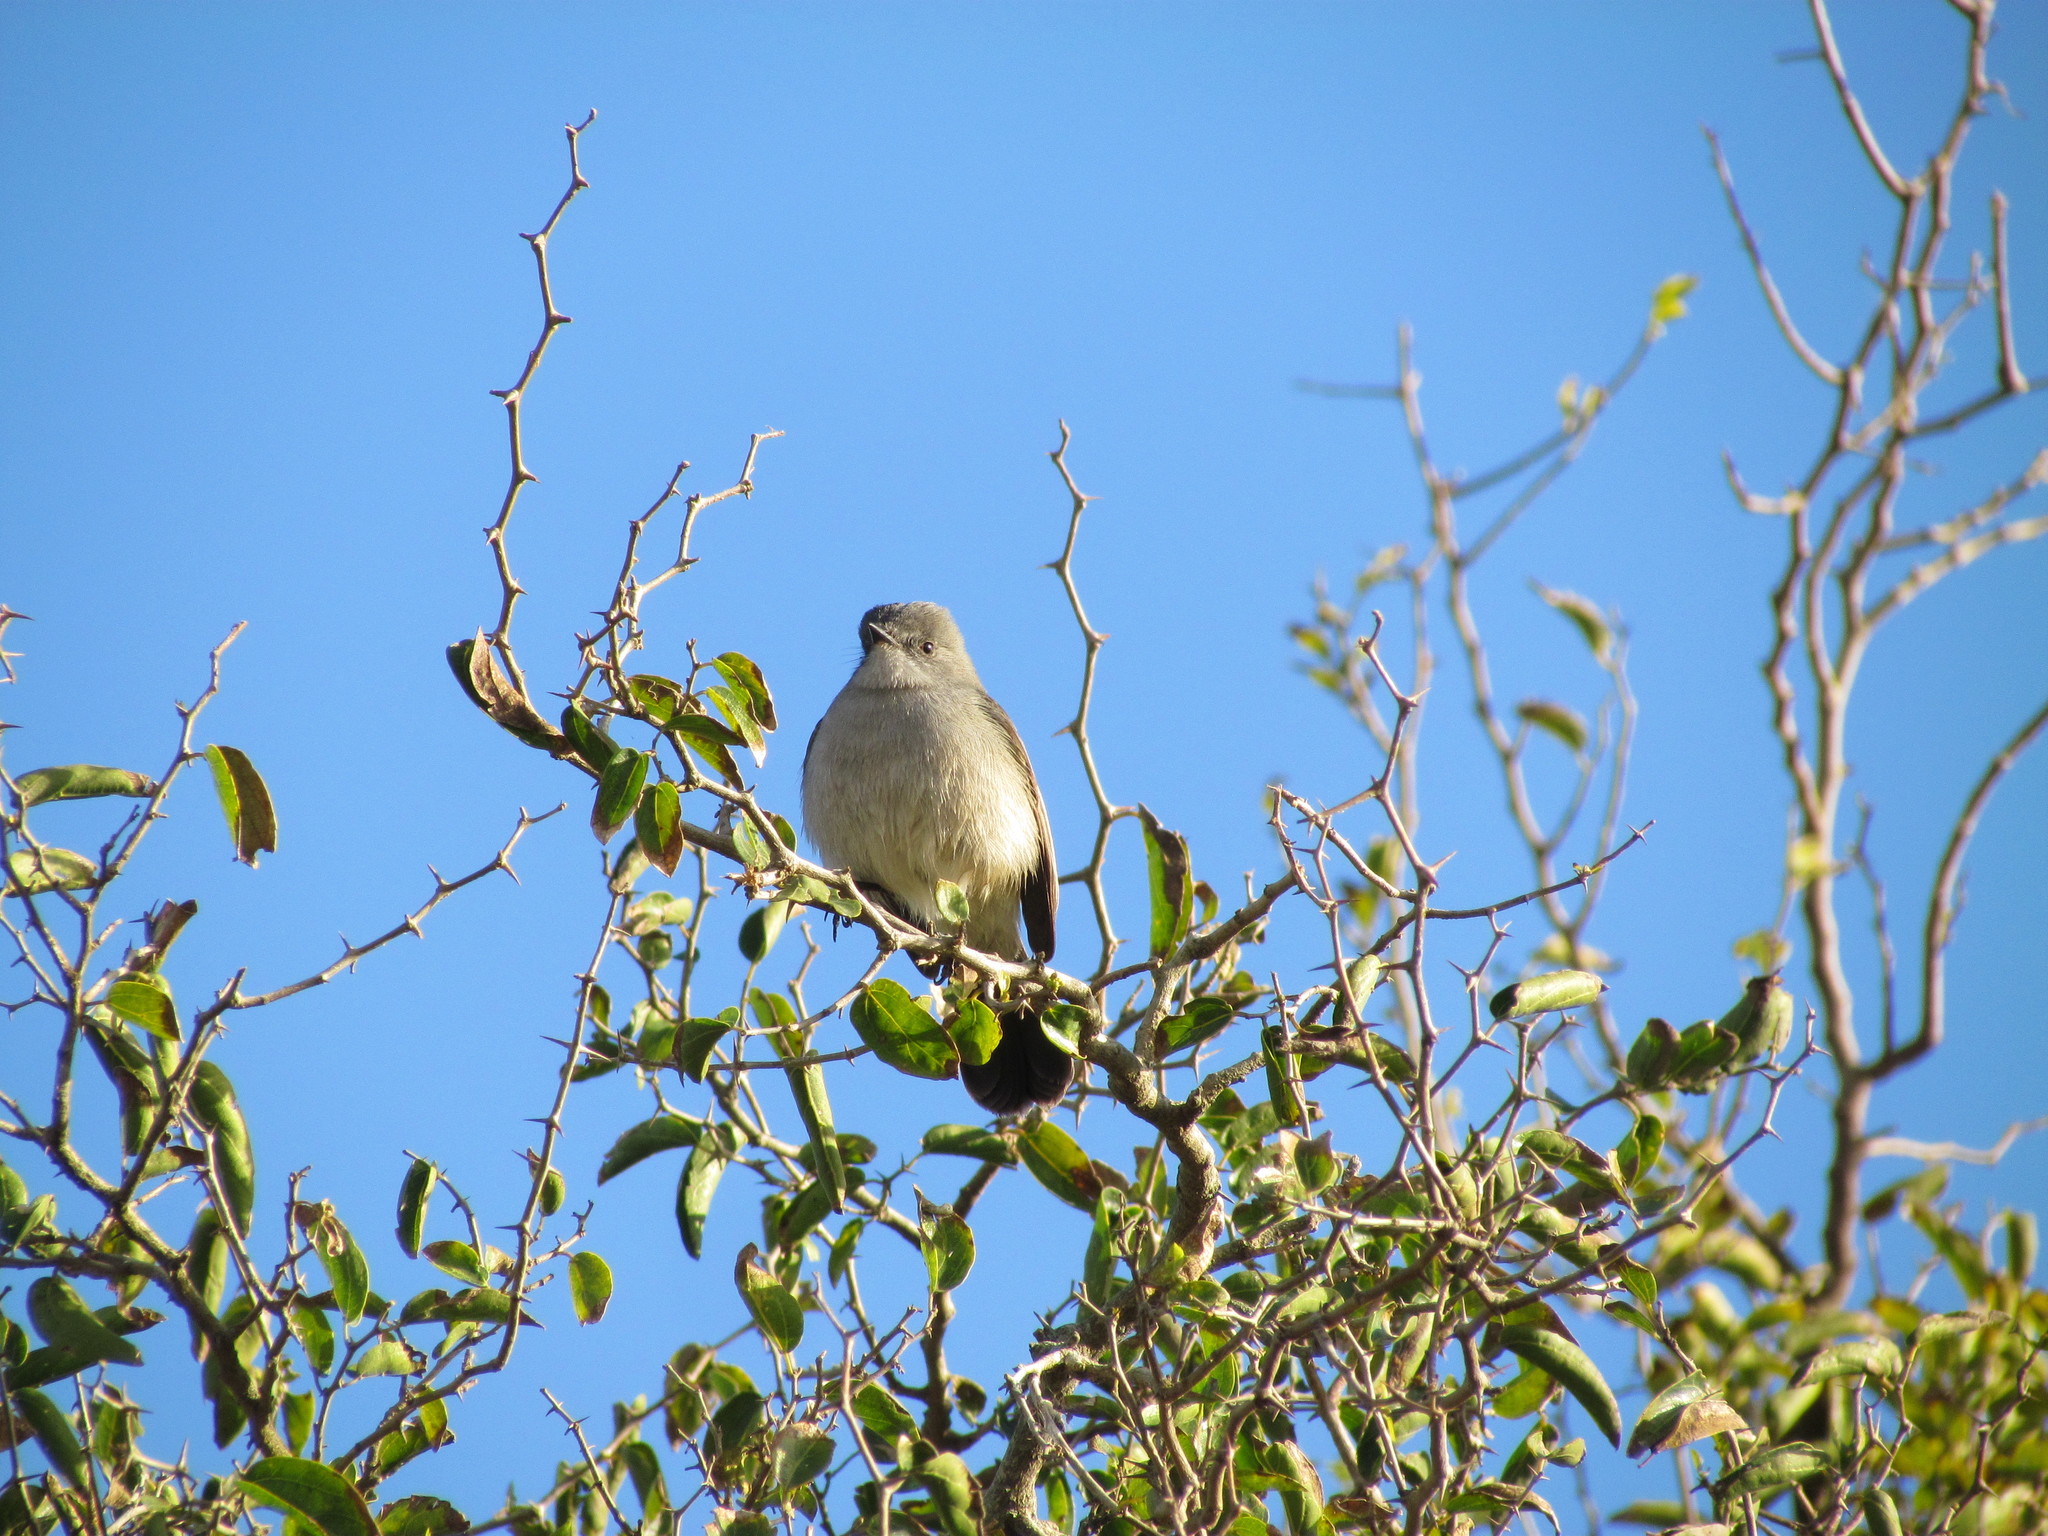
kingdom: Animalia
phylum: Chordata
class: Aves
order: Passeriformes
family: Tyrannidae
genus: Serpophaga
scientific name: Serpophaga nigricans
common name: Sooty tyrannulet
